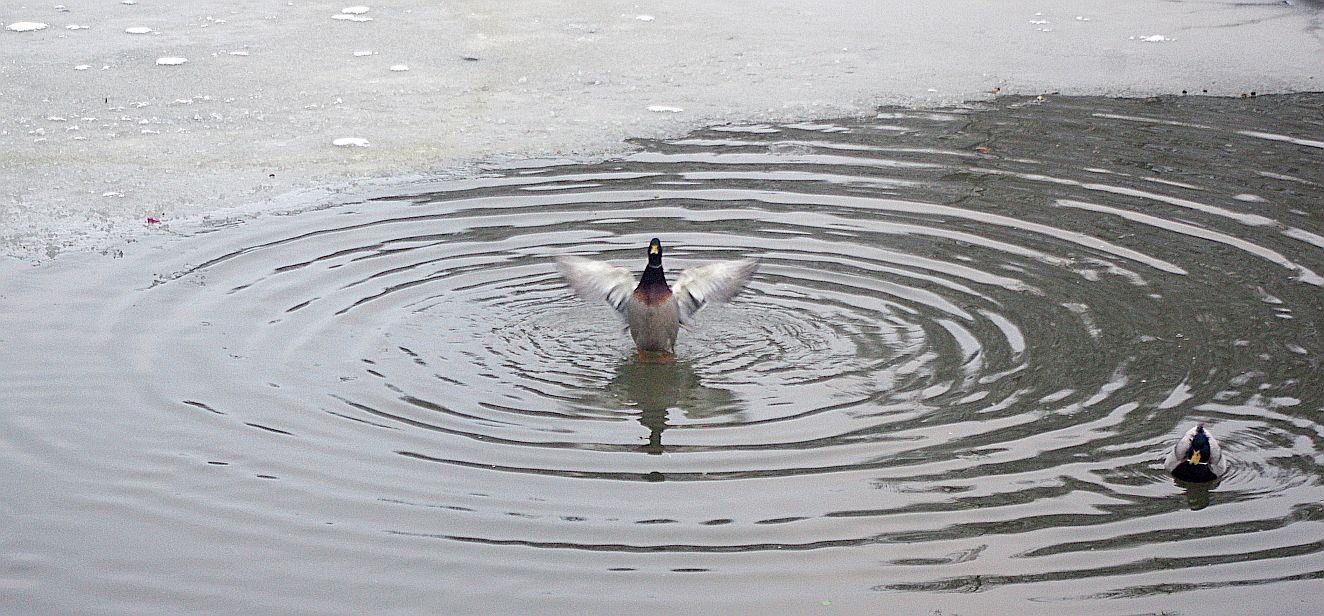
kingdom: Animalia
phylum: Chordata
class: Aves
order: Anseriformes
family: Anatidae
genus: Anas
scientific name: Anas platyrhynchos
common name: Mallard
